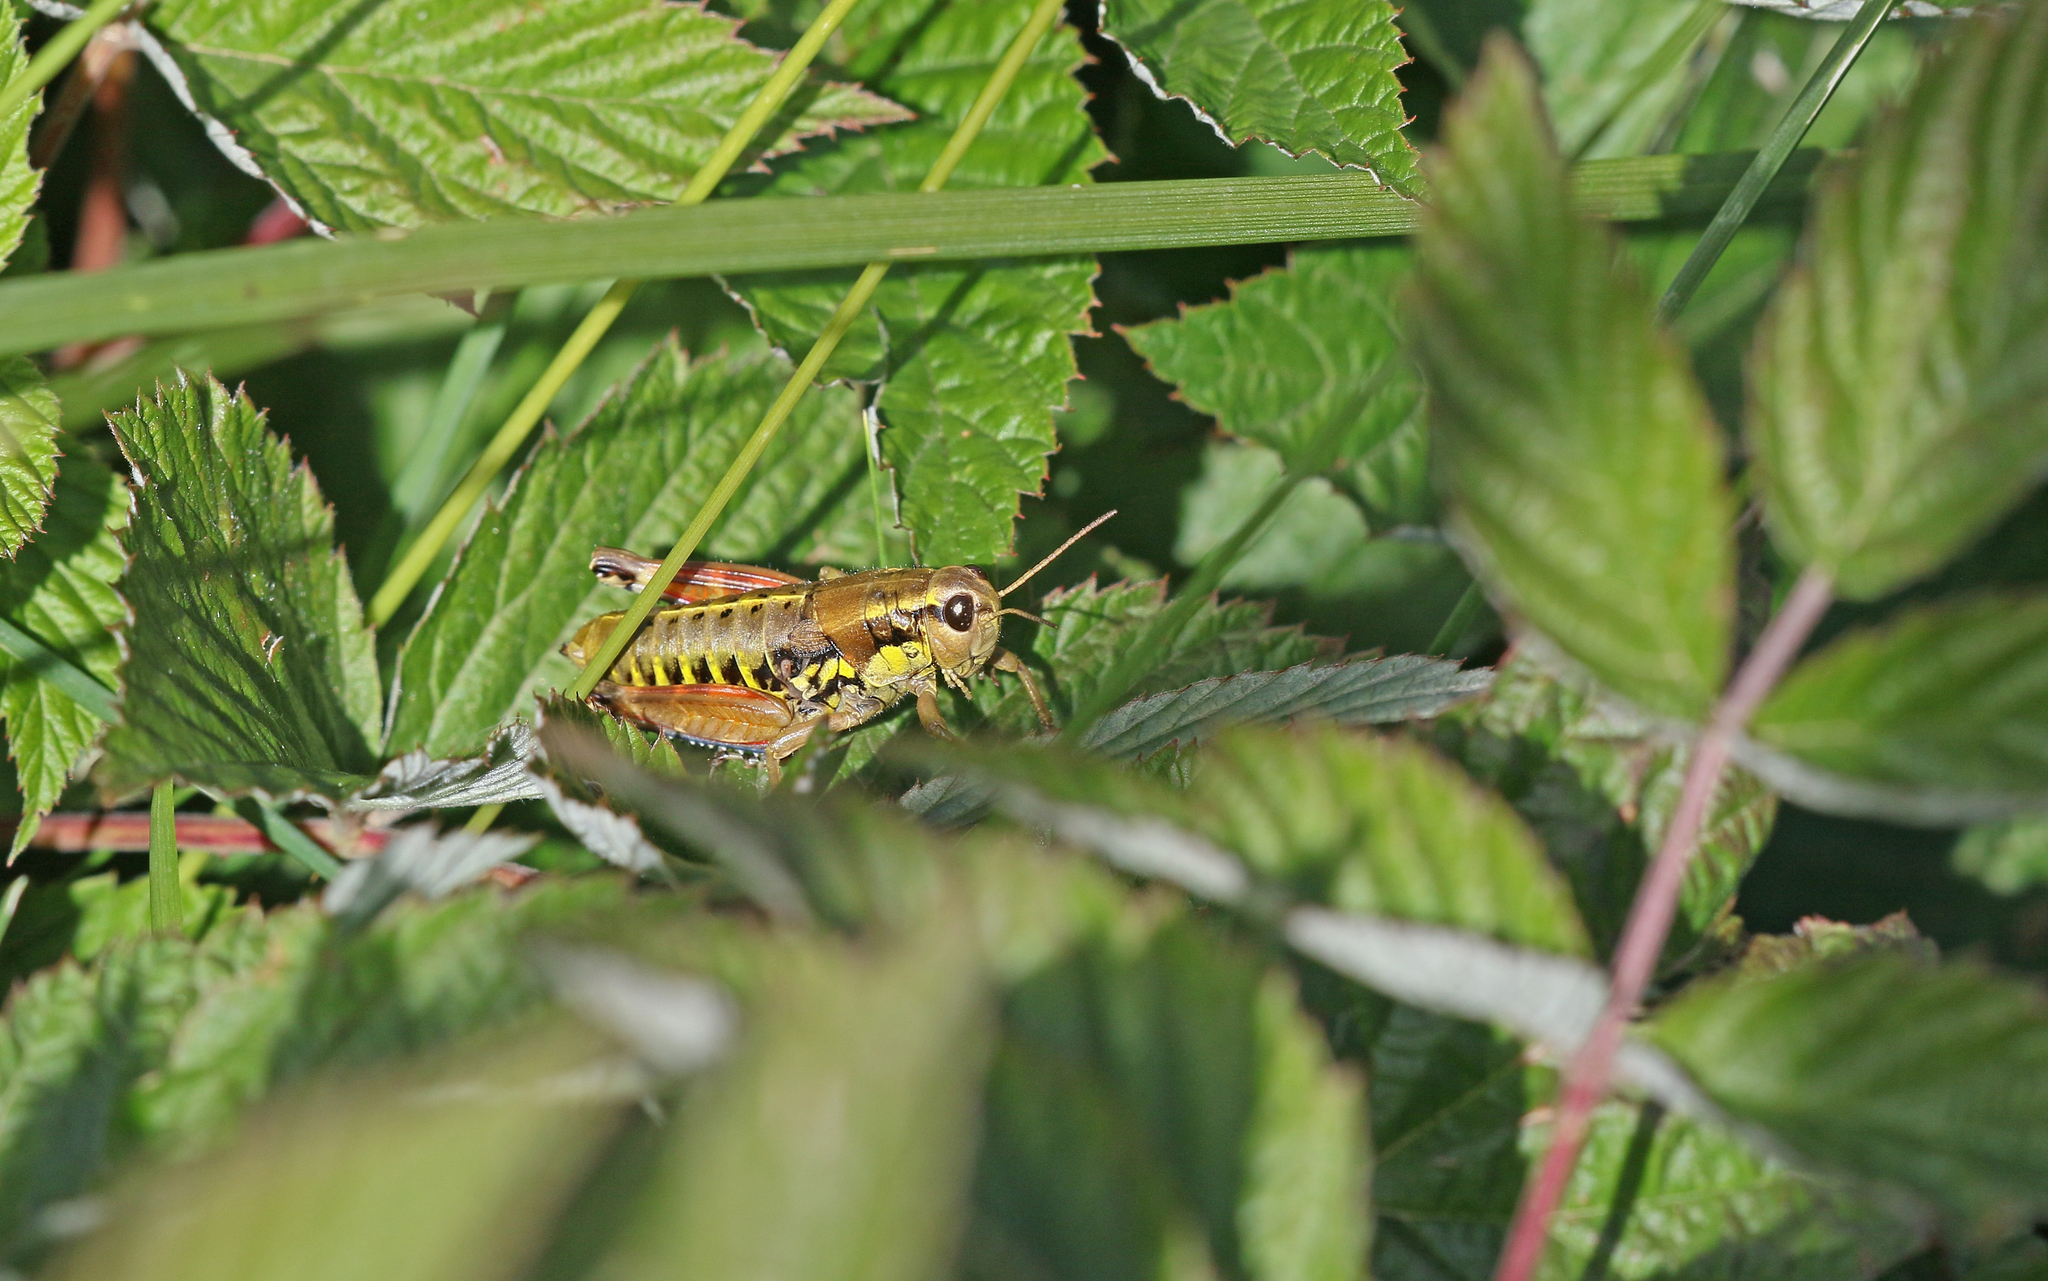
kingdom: Animalia
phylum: Arthropoda
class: Insecta
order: Orthoptera
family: Acrididae
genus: Podisma
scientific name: Podisma dechambrei
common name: Alpes-maritimes mountain grasshopper
